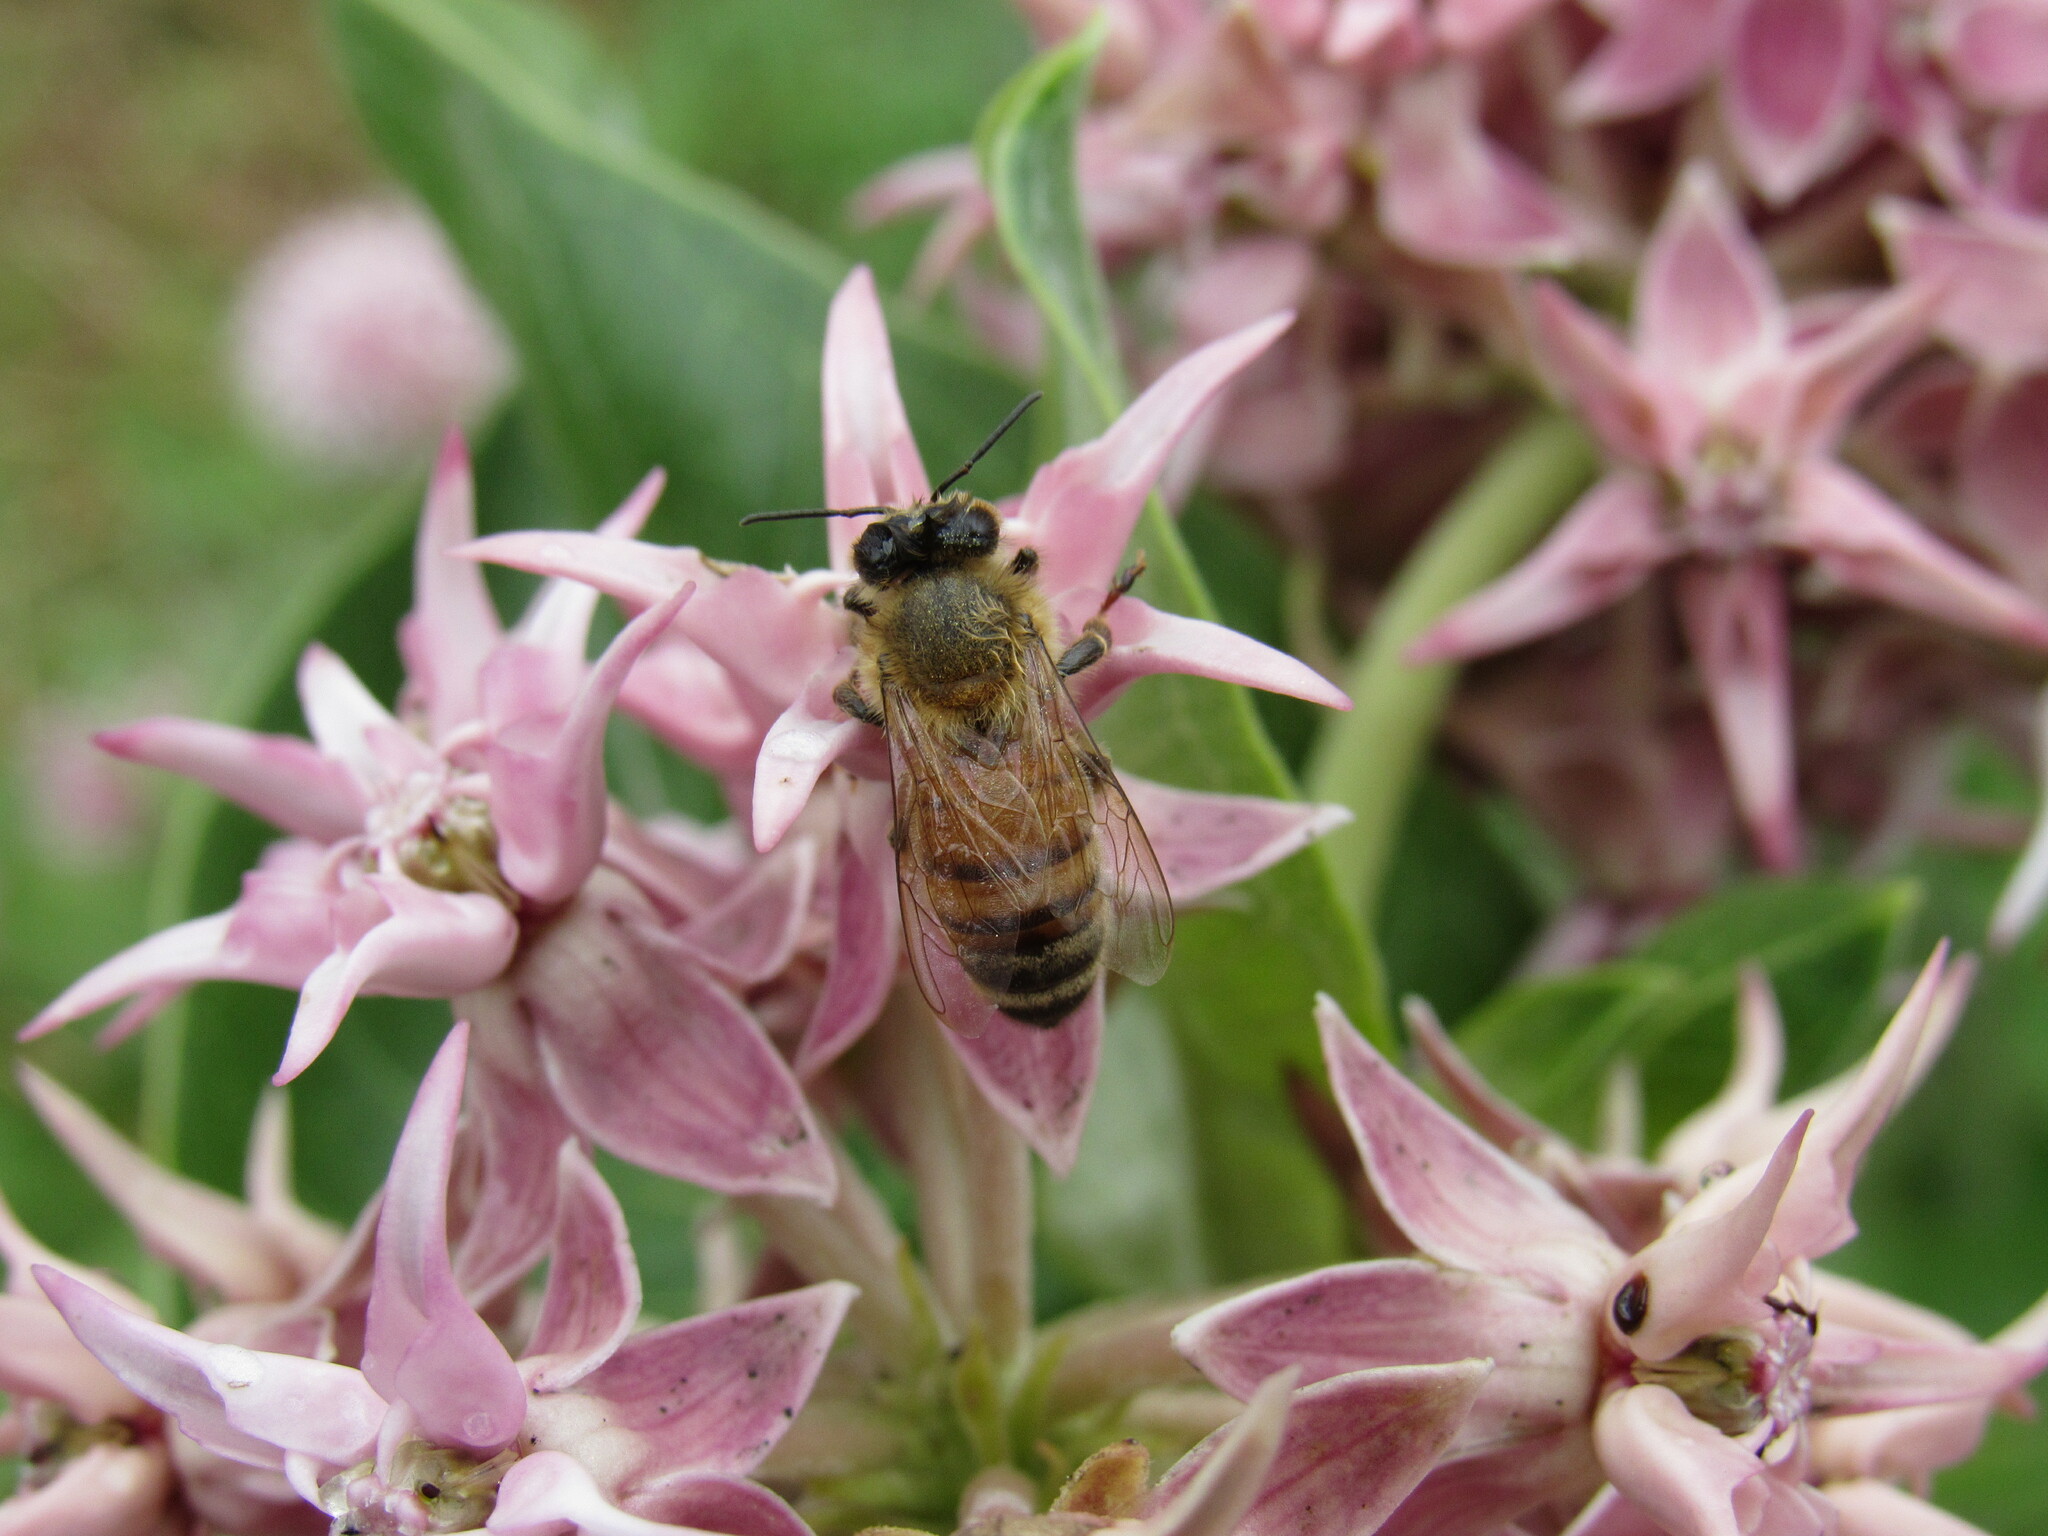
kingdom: Animalia
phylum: Arthropoda
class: Insecta
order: Hymenoptera
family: Apidae
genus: Apis
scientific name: Apis mellifera
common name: Honey bee
